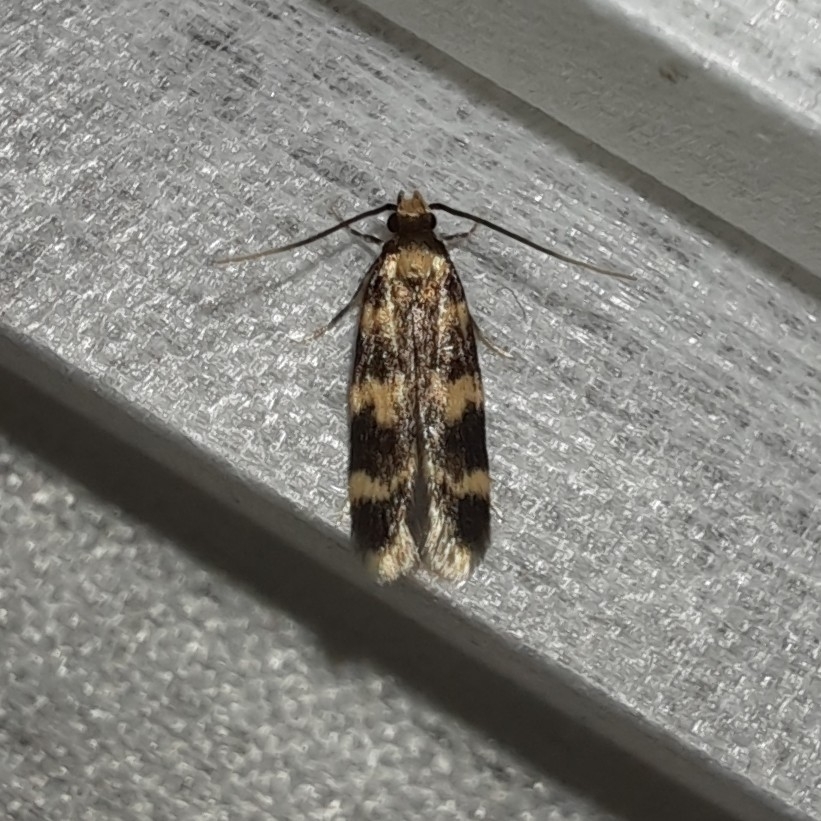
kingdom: Animalia
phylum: Arthropoda
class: Insecta
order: Lepidoptera
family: Autostichidae
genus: Oegoconia
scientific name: Oegoconia caradjai
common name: Straw obscure
